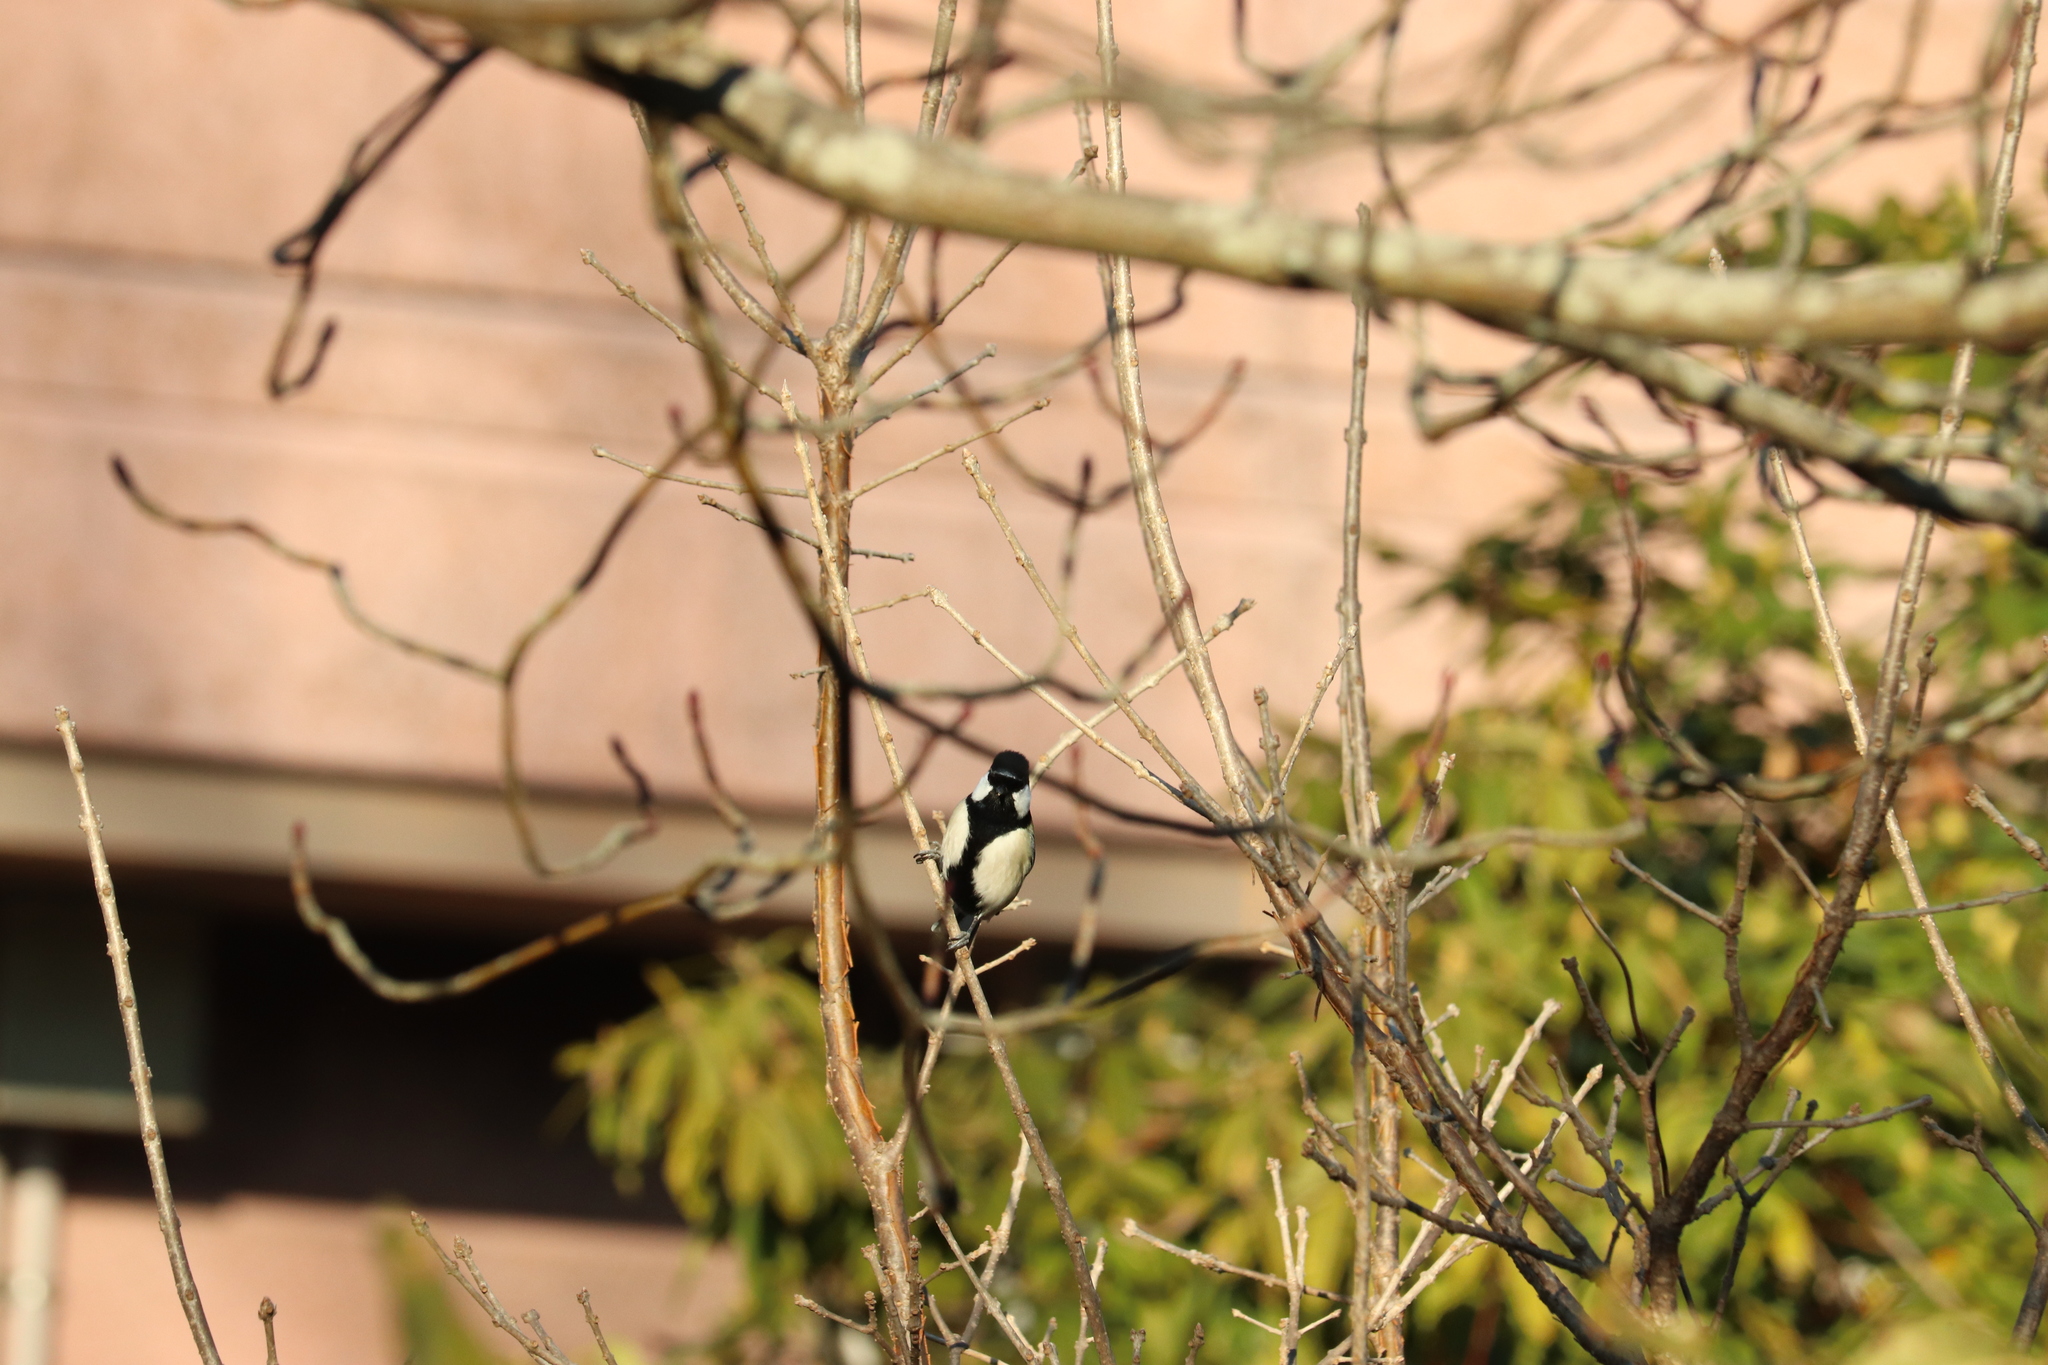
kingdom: Animalia
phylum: Chordata
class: Aves
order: Passeriformes
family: Paridae
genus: Parus
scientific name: Parus minor
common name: Japanese tit
